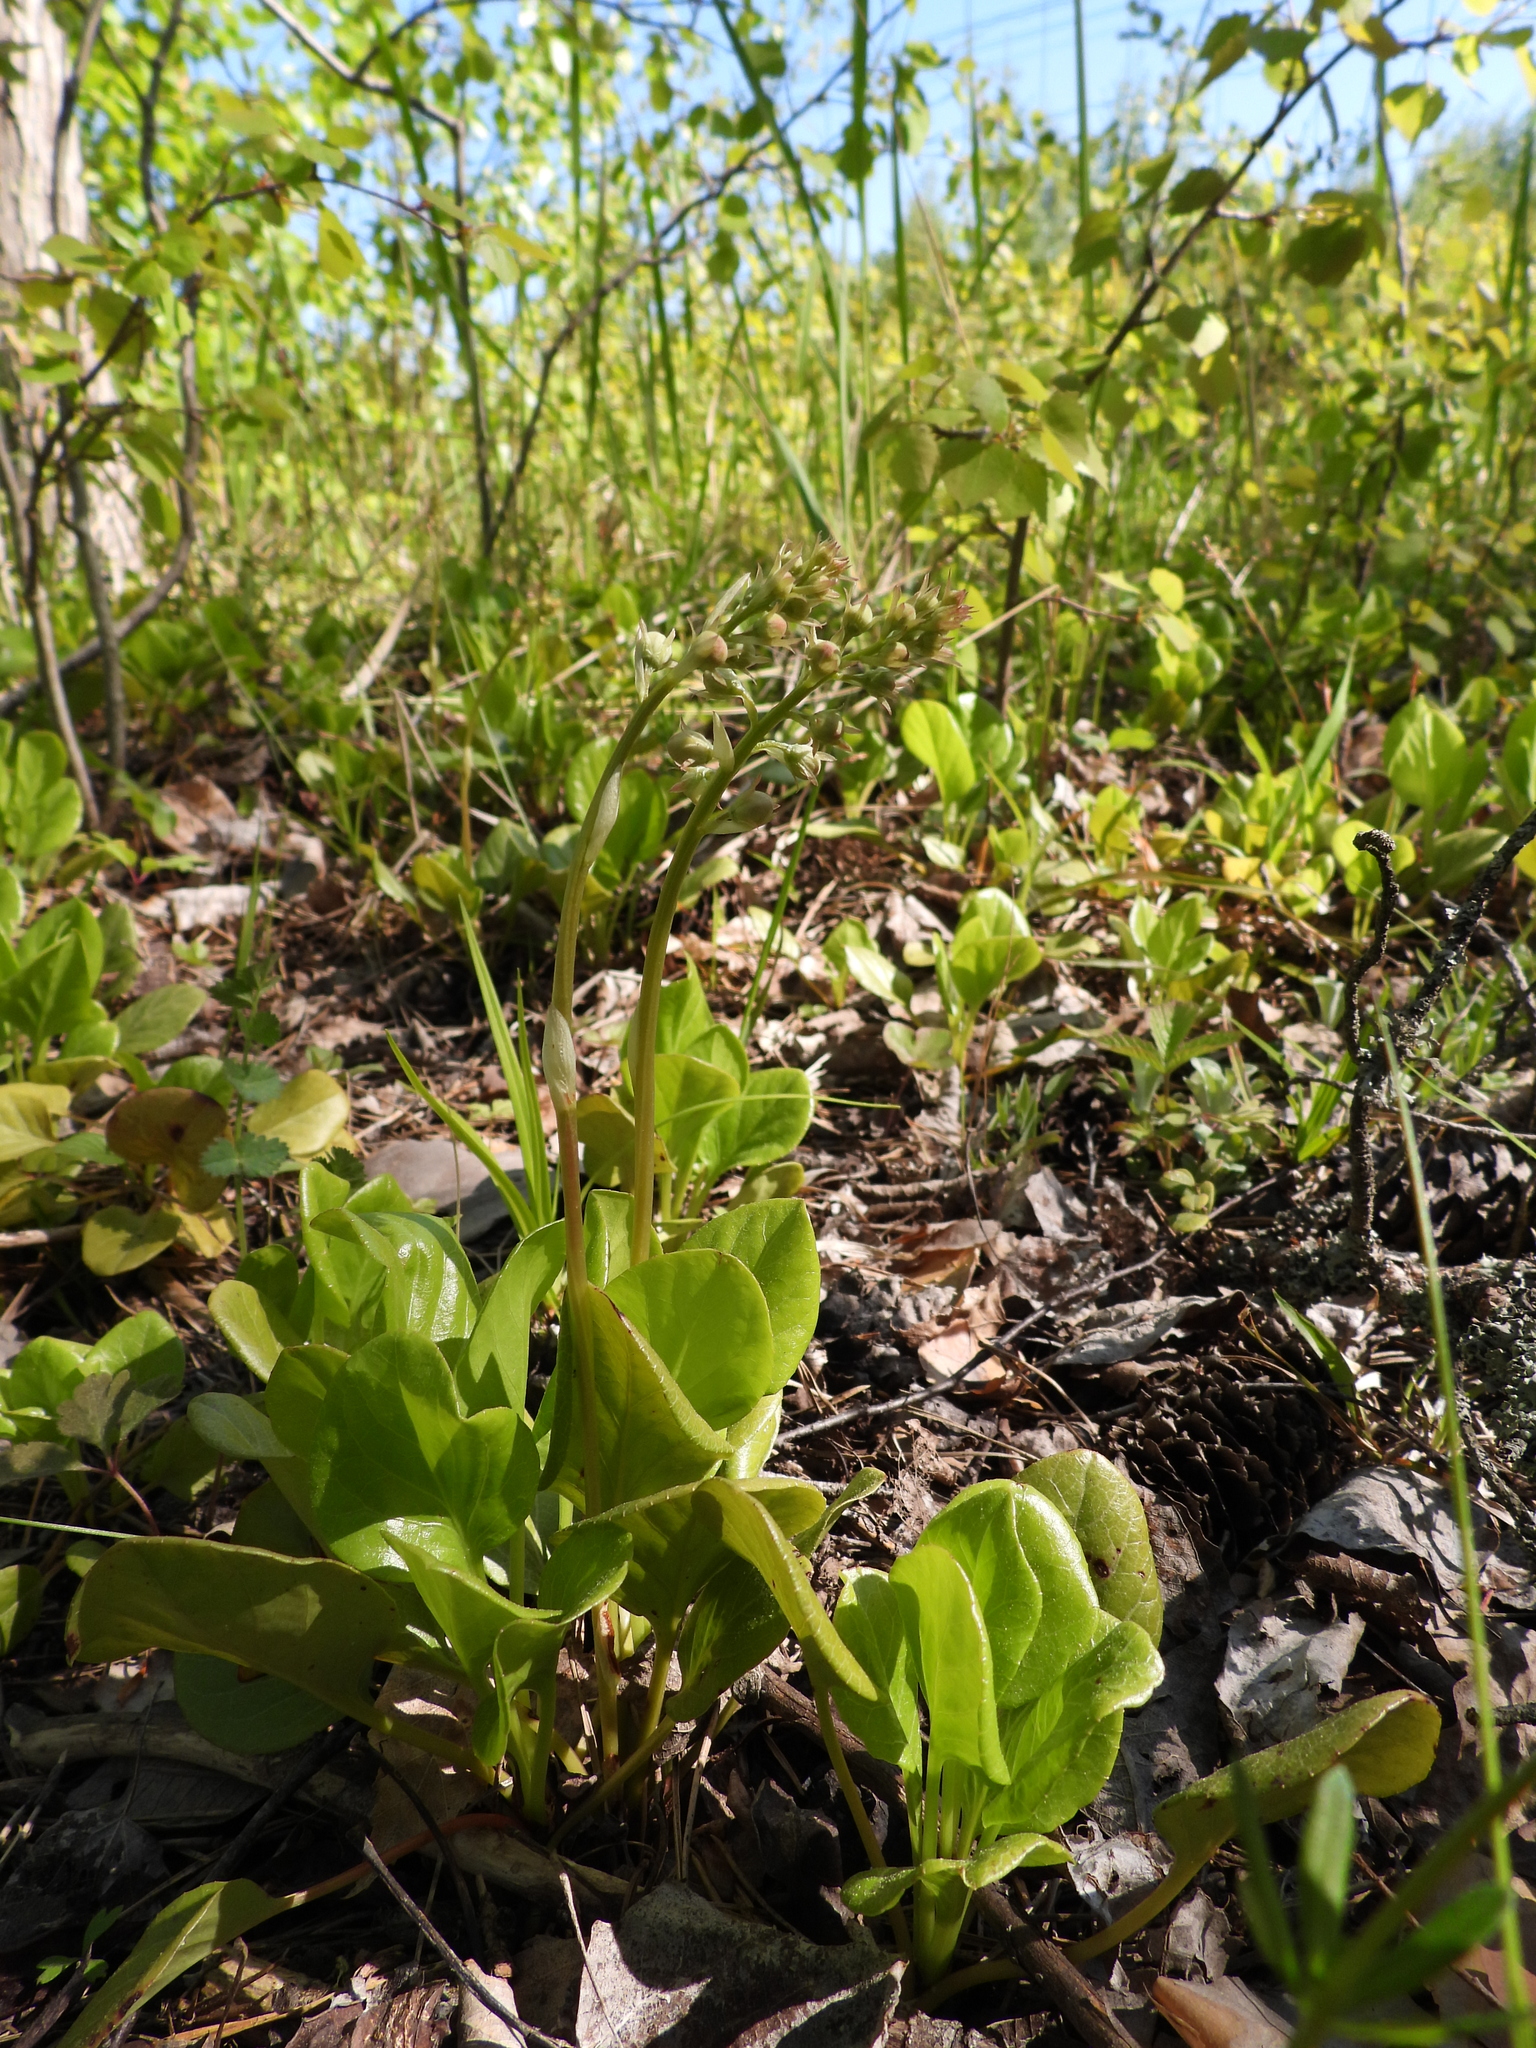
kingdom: Plantae
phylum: Tracheophyta
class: Magnoliopsida
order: Ericales
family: Ericaceae
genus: Pyrola
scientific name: Pyrola rotundifolia
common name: Round-leaved wintergreen
